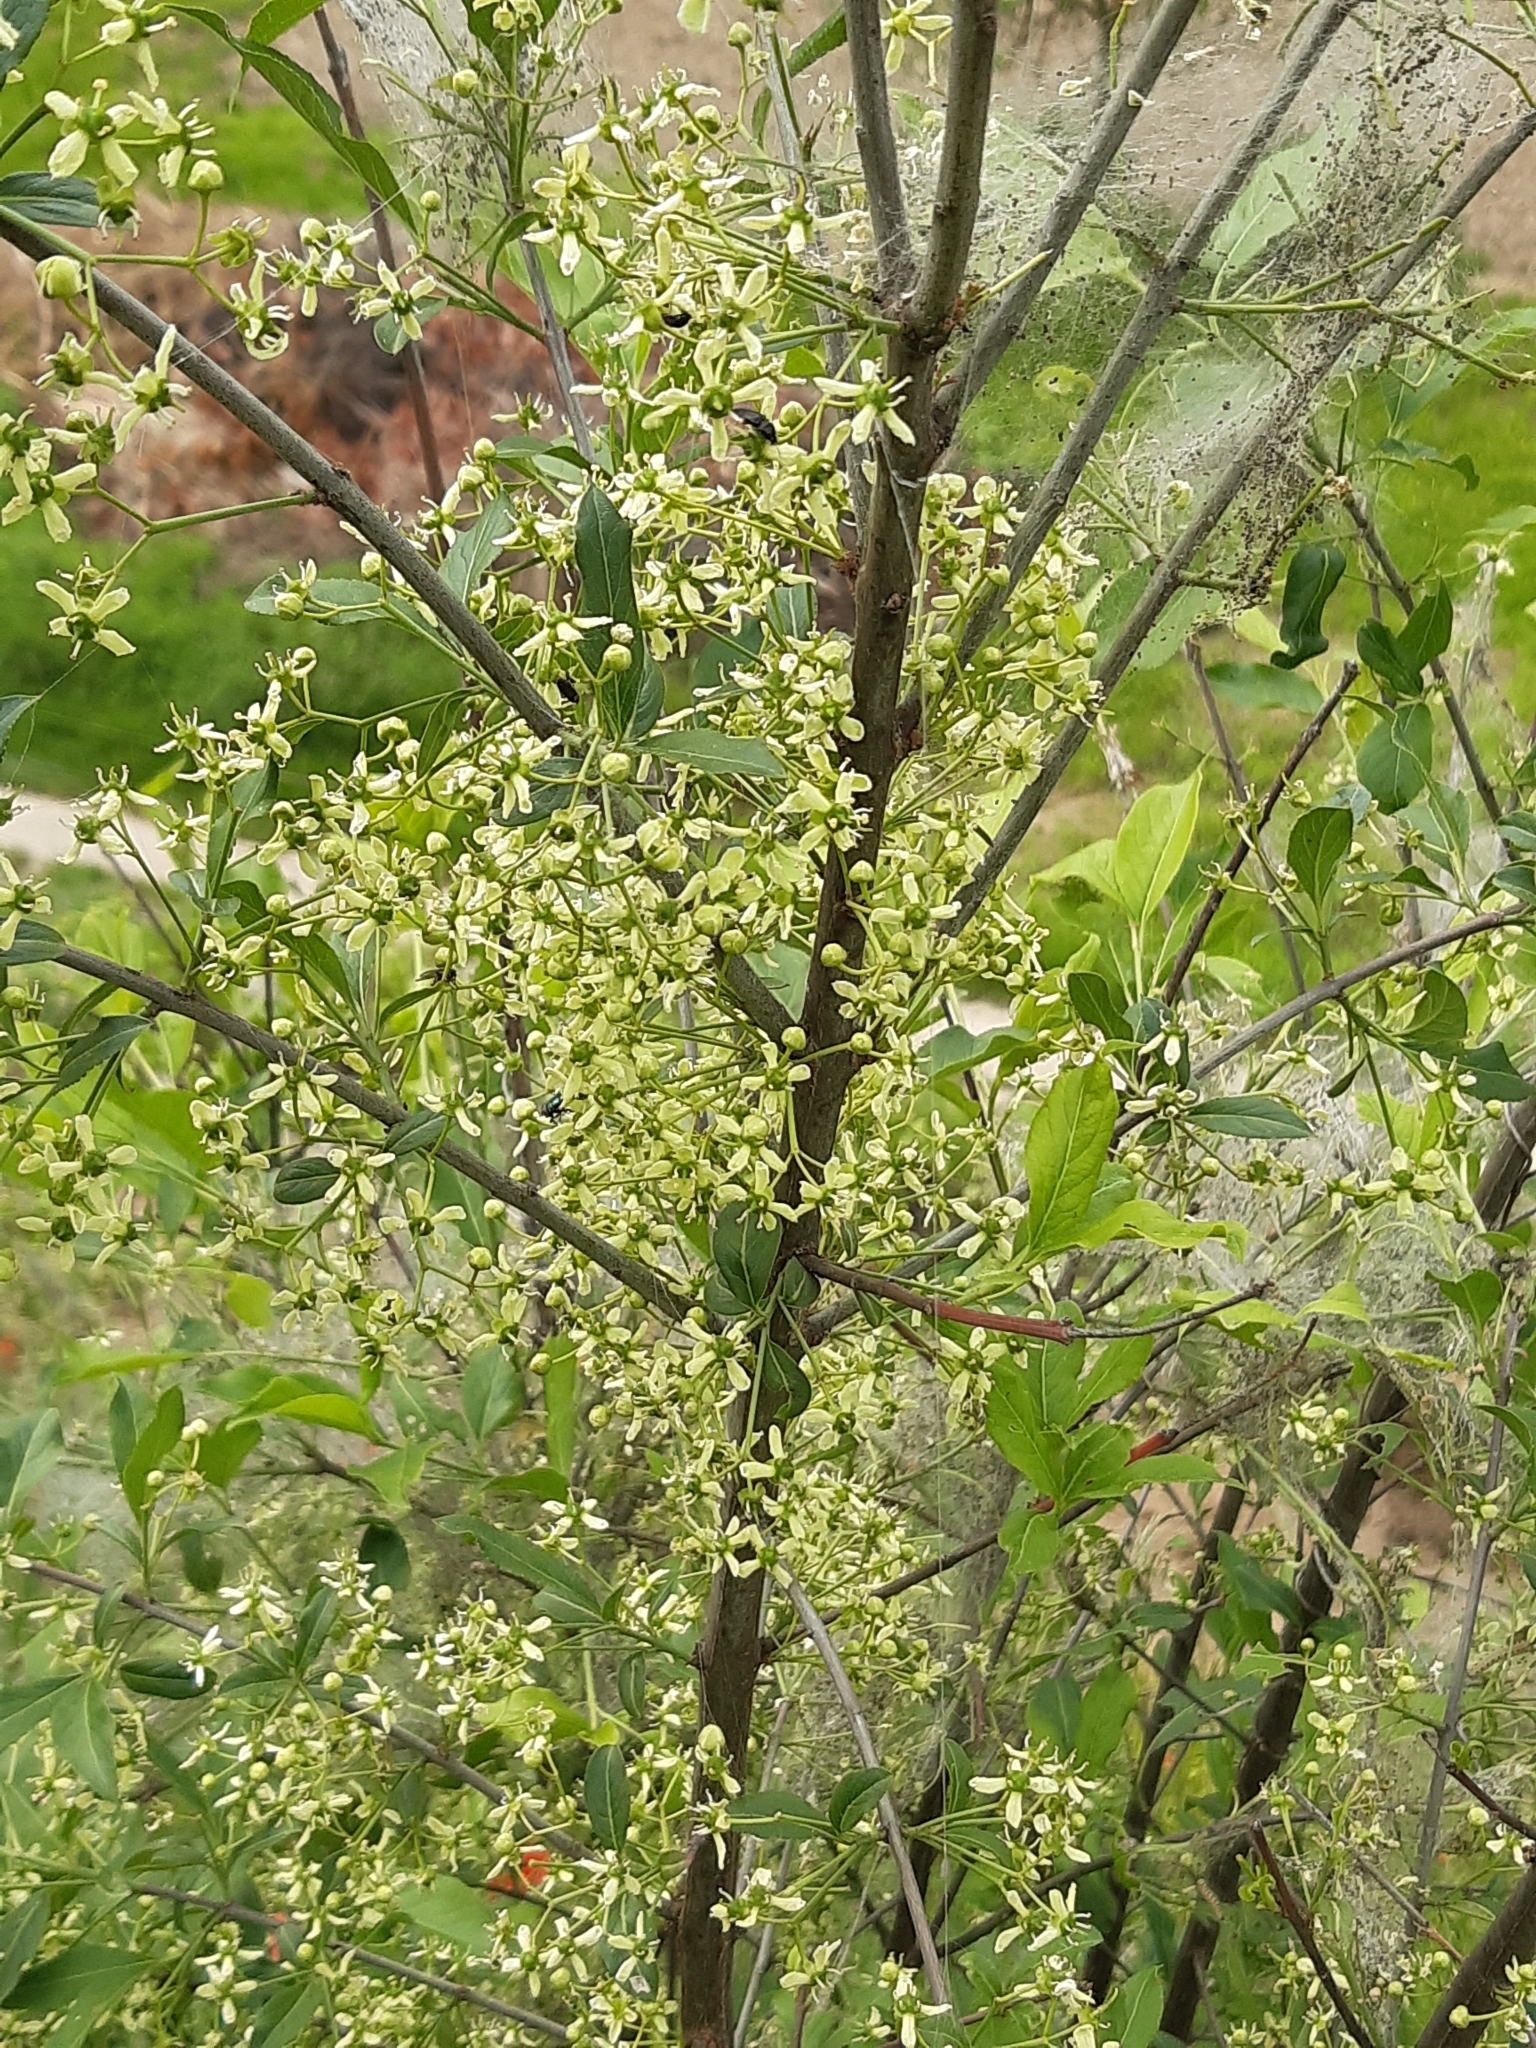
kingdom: Plantae
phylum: Tracheophyta
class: Magnoliopsida
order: Celastrales
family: Celastraceae
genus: Euonymus
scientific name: Euonymus europaeus
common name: Spindle
